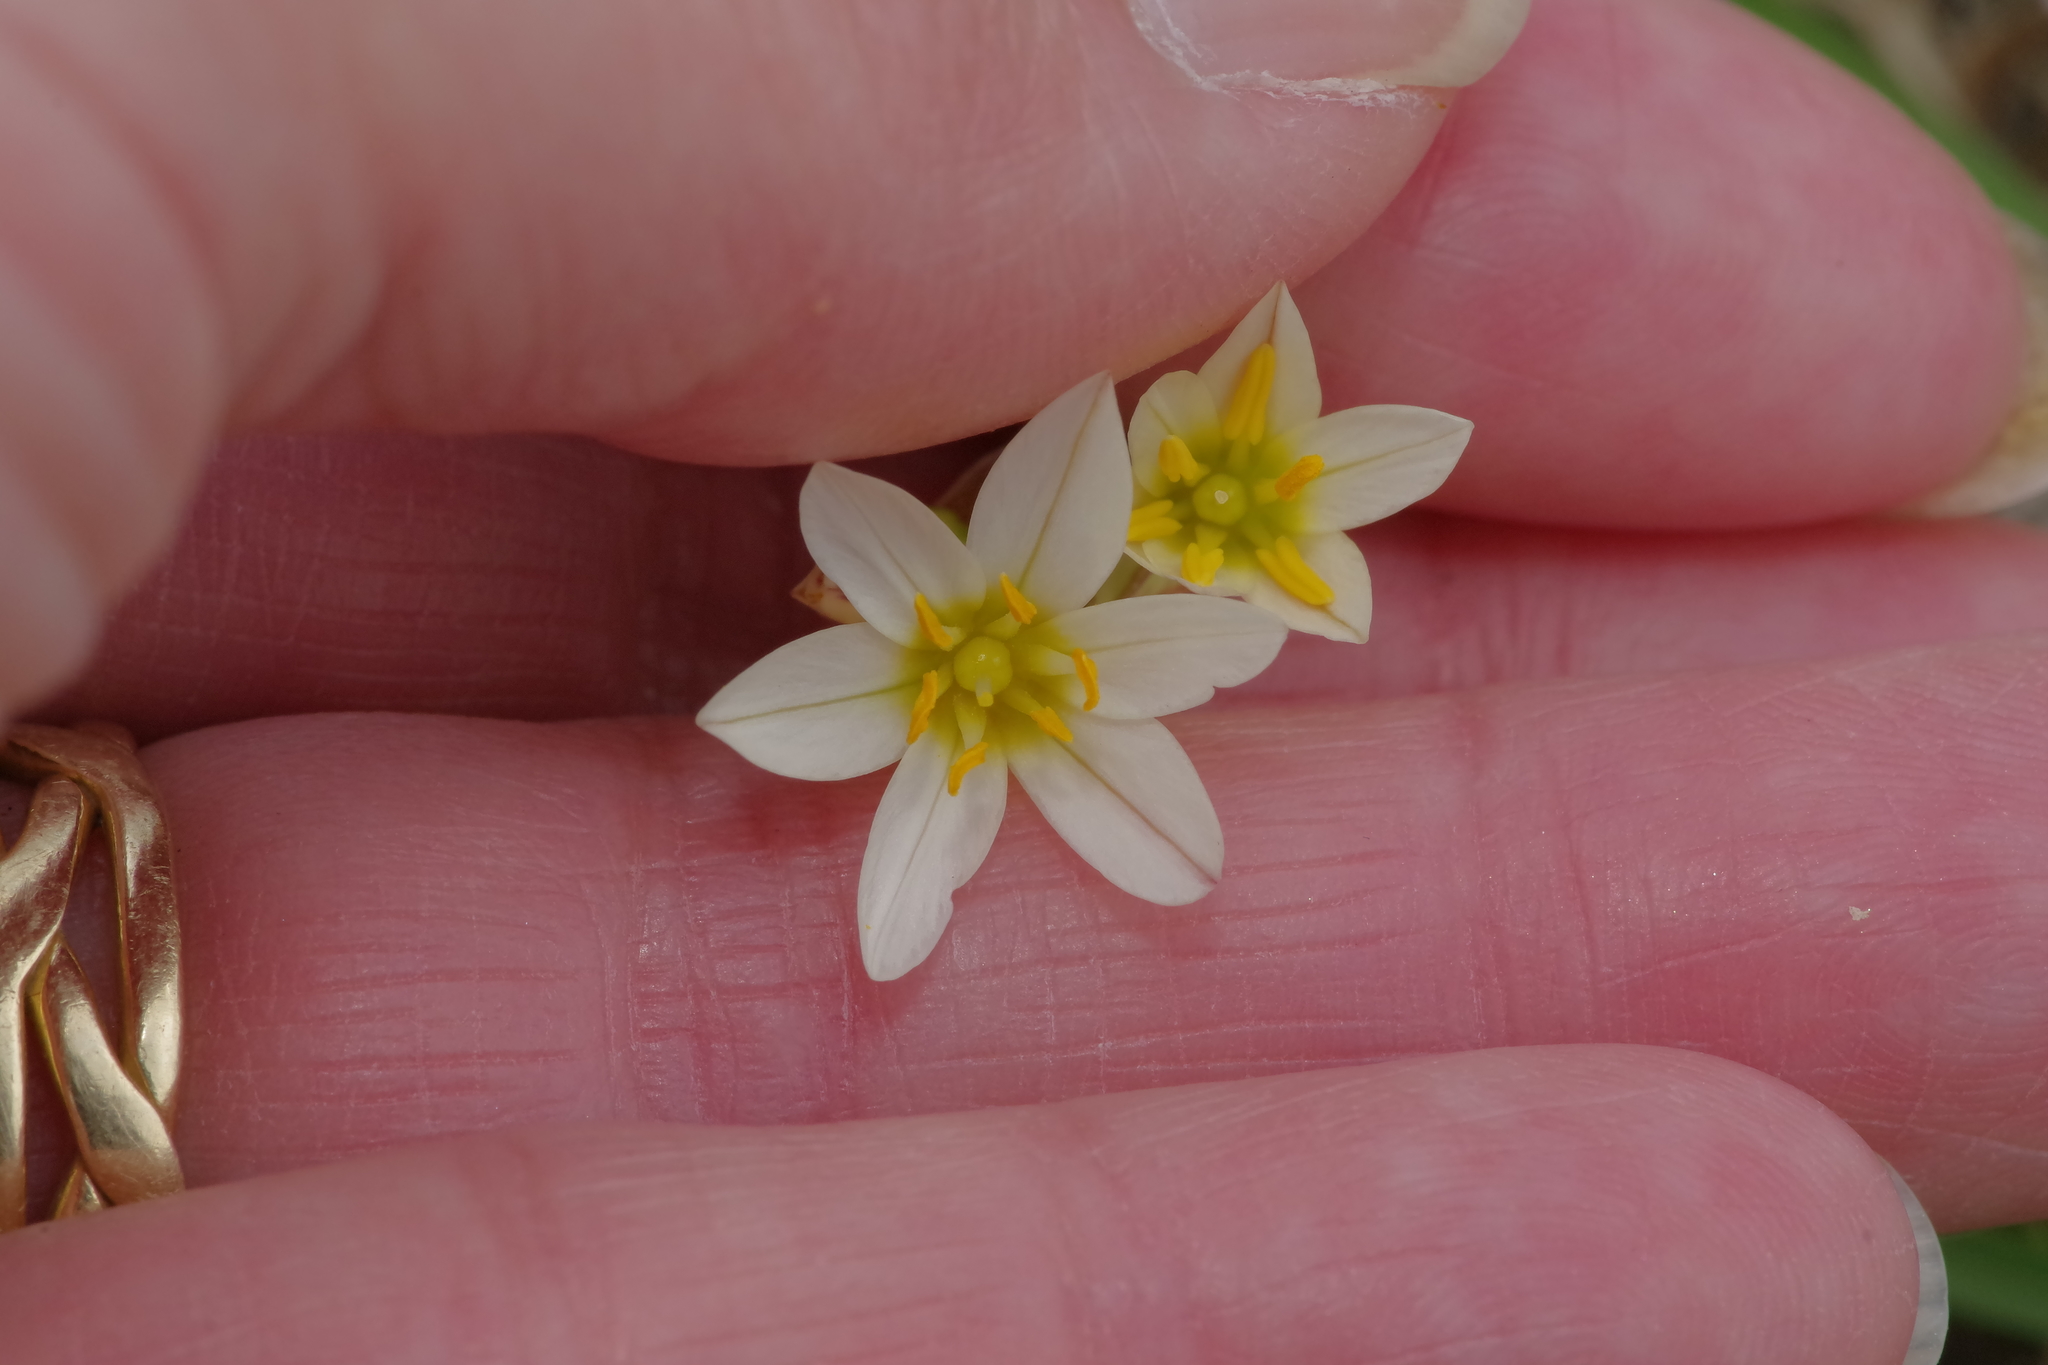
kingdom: Plantae
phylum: Tracheophyta
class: Liliopsida
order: Asparagales
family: Amaryllidaceae
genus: Nothoscordum
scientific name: Nothoscordum bivalve
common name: Crow-poison
